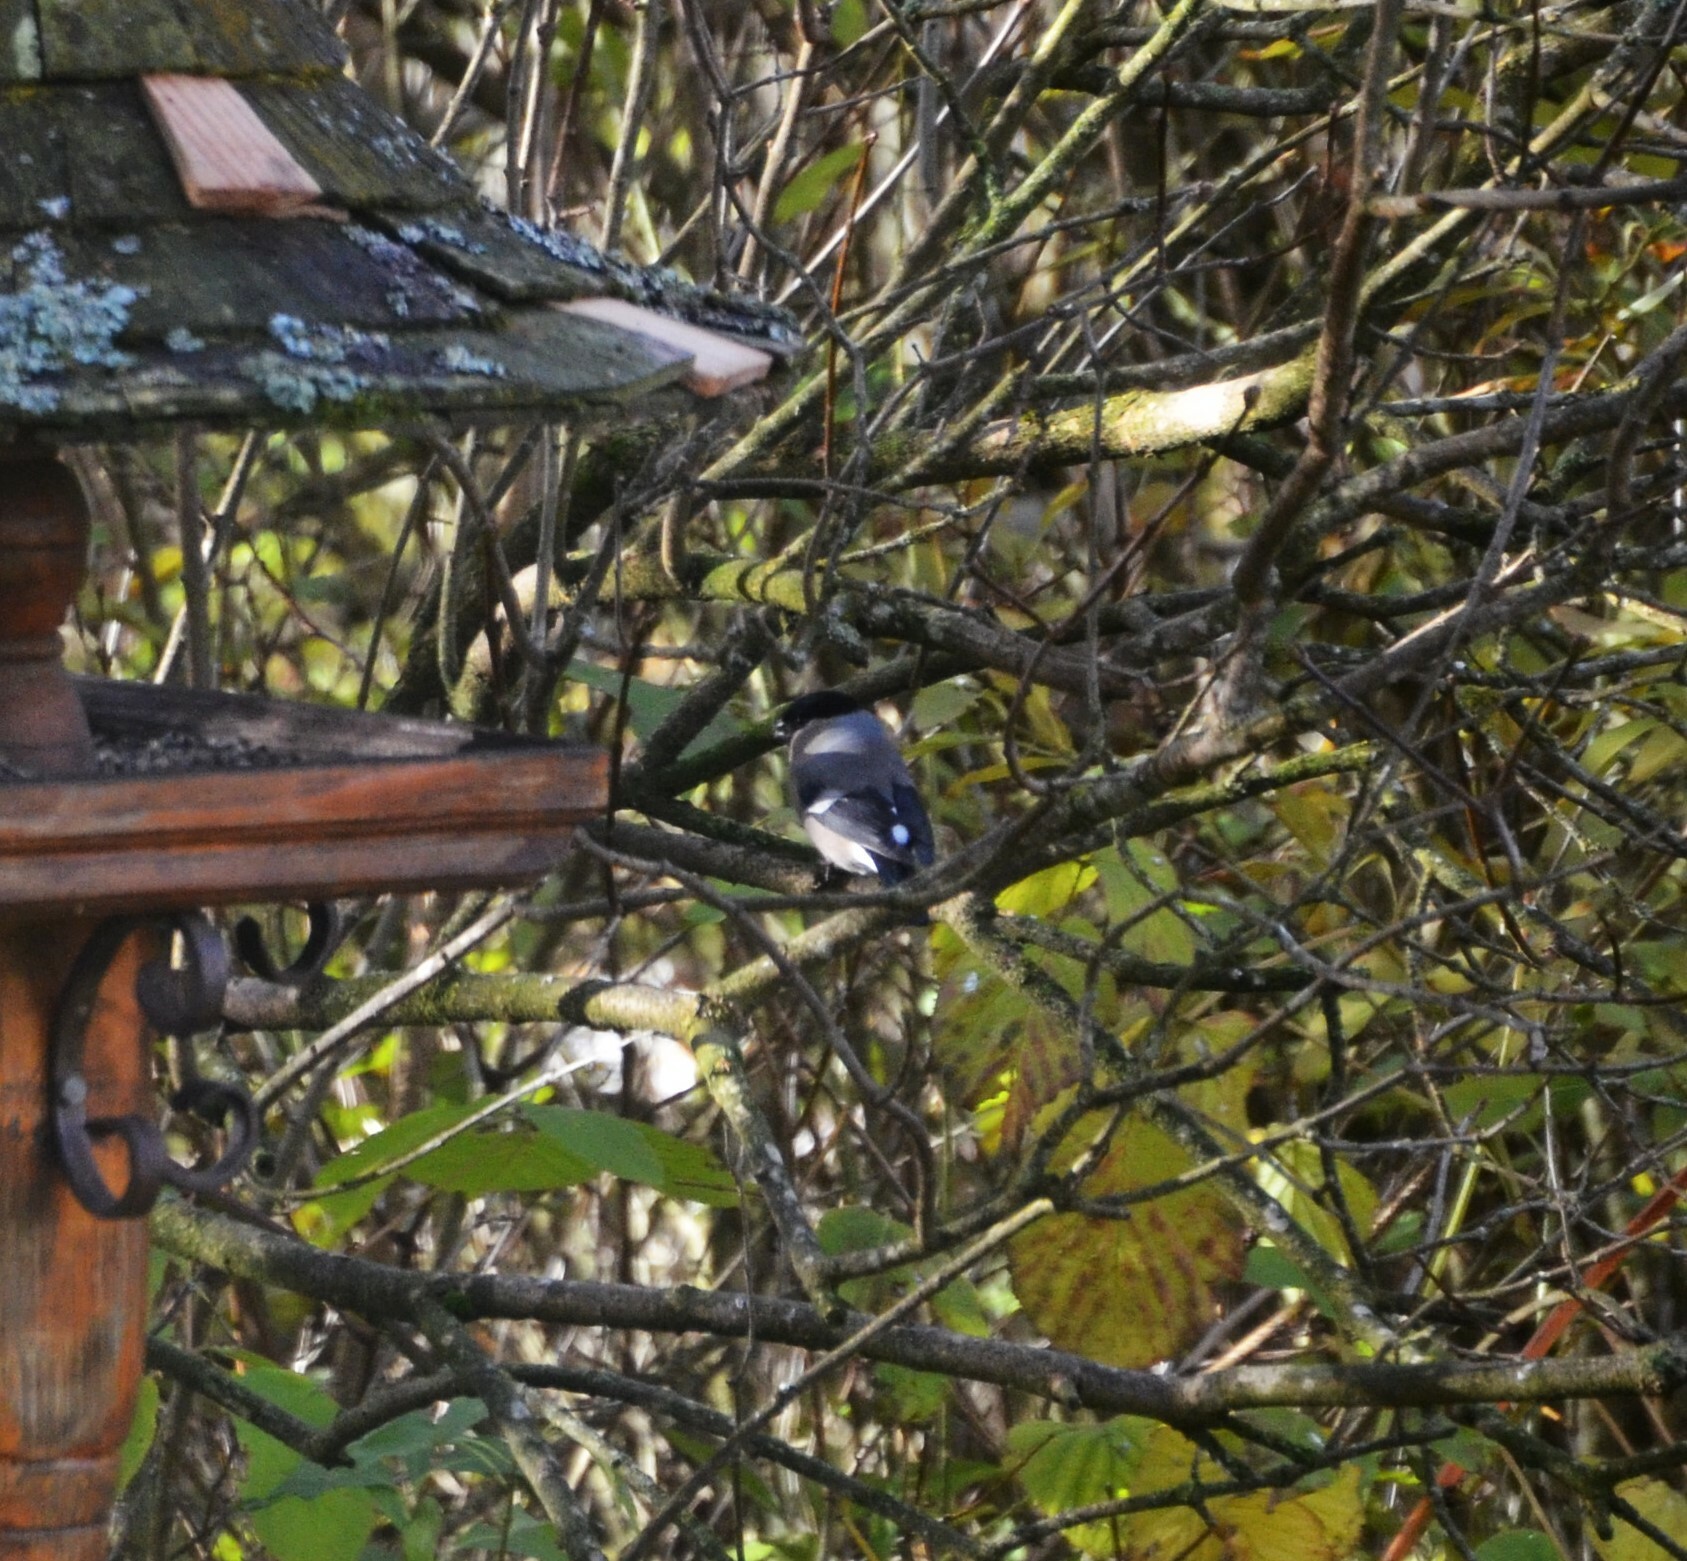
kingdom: Animalia
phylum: Chordata
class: Aves
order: Passeriformes
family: Fringillidae
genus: Pyrrhula
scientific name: Pyrrhula pyrrhula
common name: Eurasian bullfinch
